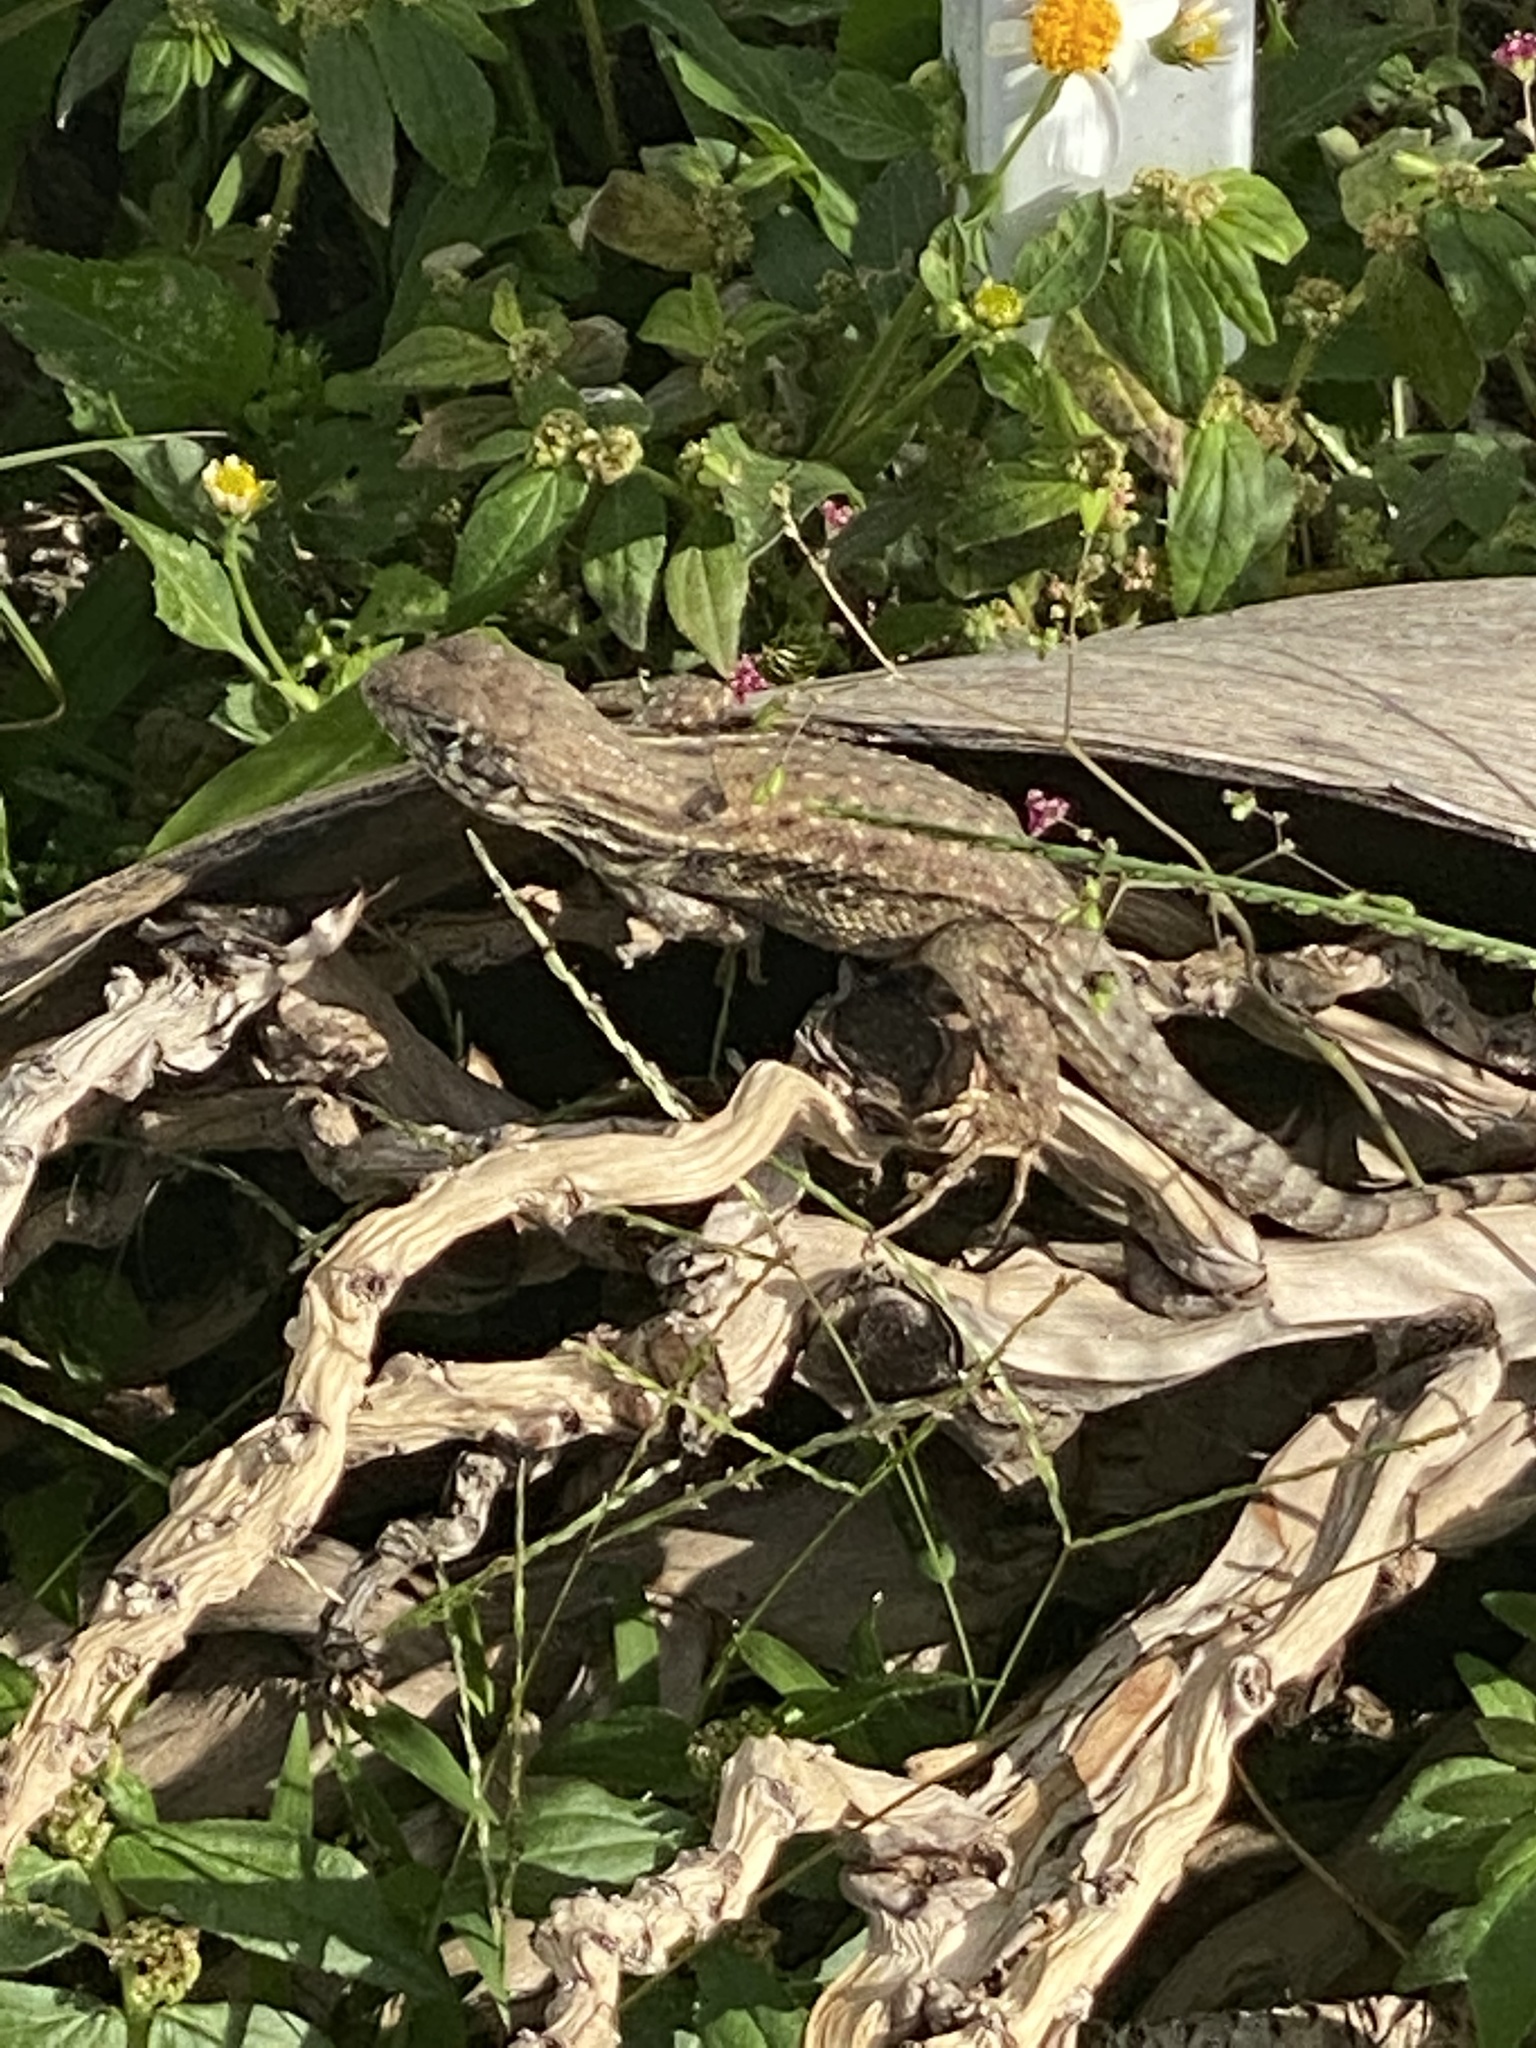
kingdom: Animalia
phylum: Chordata
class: Squamata
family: Leiocephalidae
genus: Leiocephalus
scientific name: Leiocephalus carinatus
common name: Northern curly-tailed lizard
